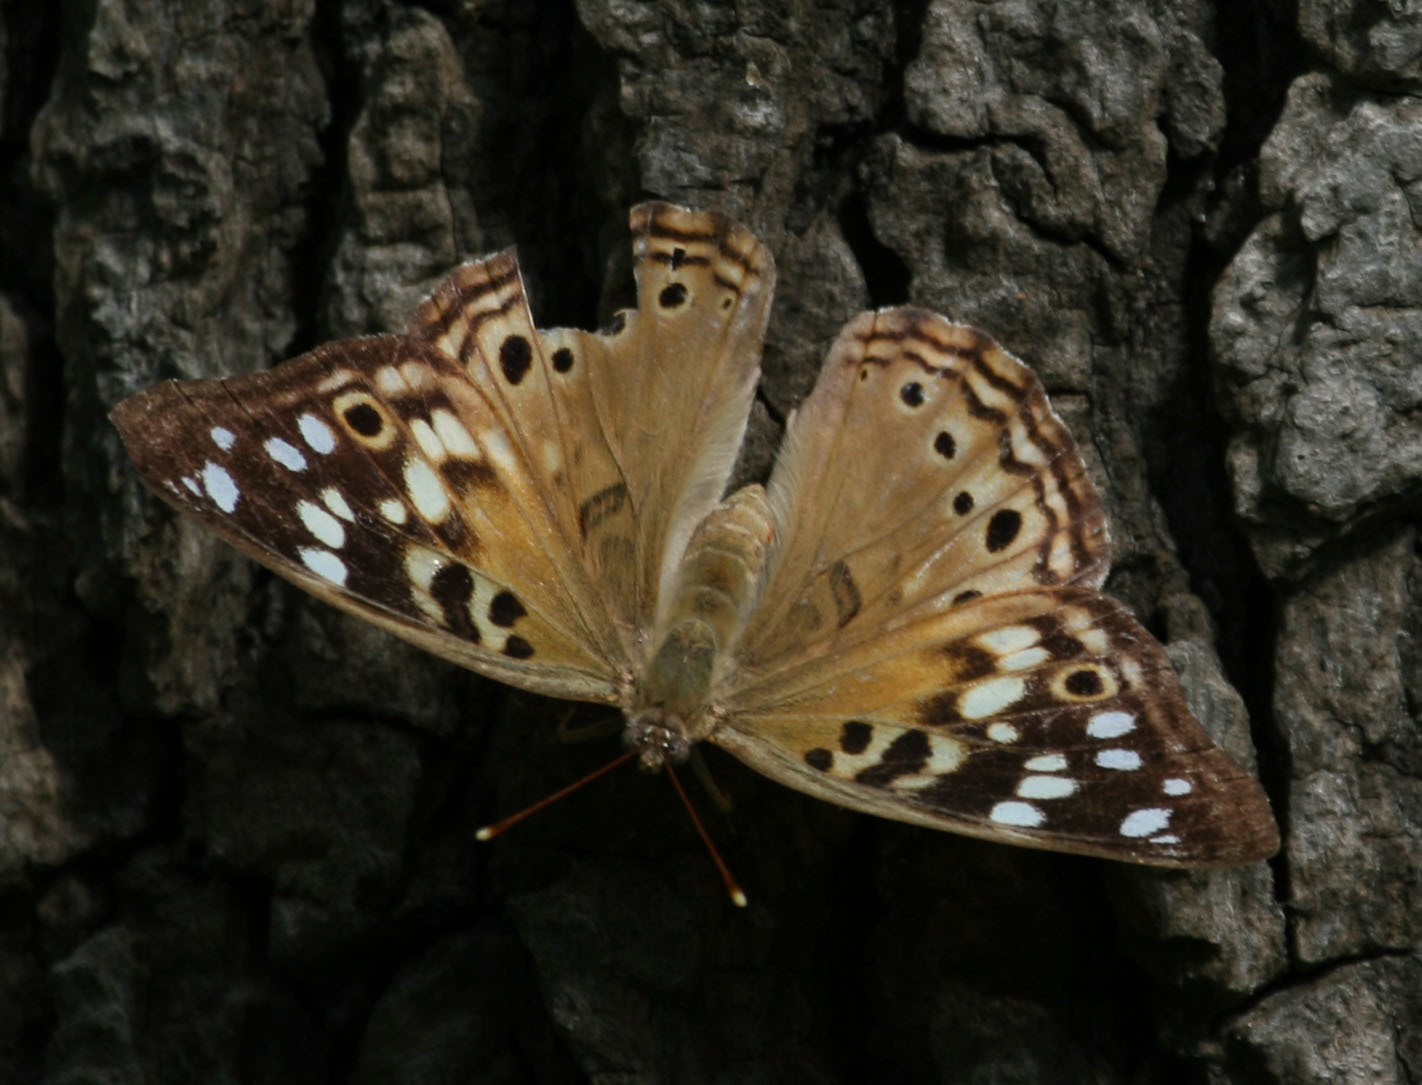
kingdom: Animalia
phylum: Arthropoda
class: Insecta
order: Lepidoptera
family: Nymphalidae
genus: Asterocampa
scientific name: Asterocampa celtis
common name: Hackberry emperor
